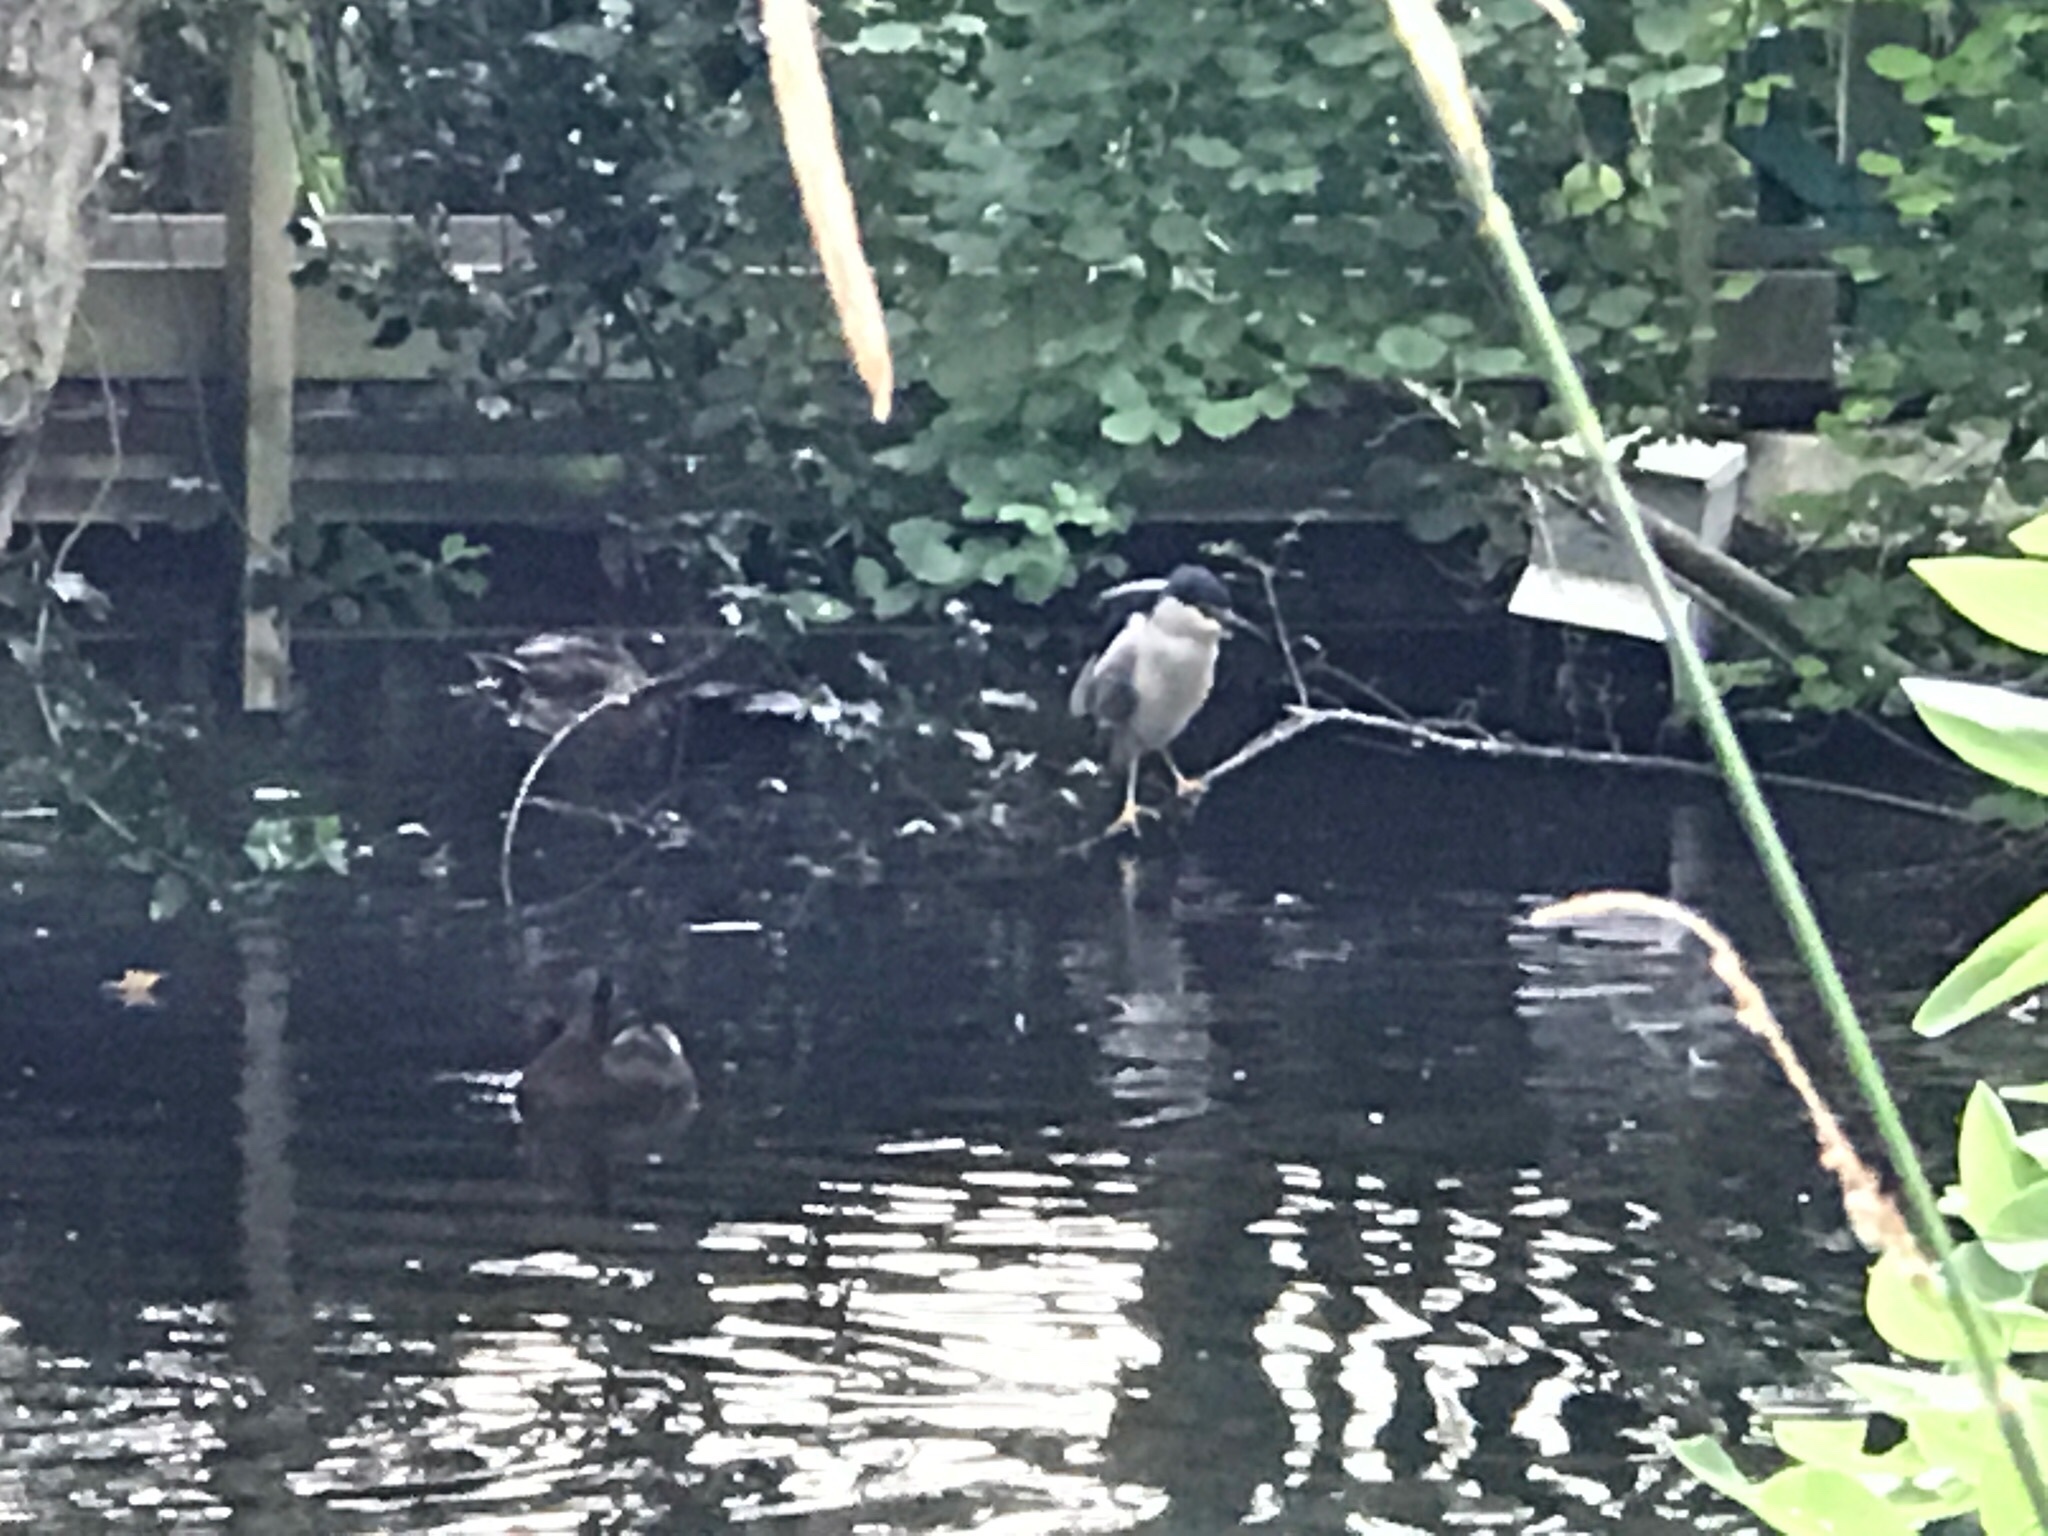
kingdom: Animalia
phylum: Chordata
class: Aves
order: Pelecaniformes
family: Ardeidae
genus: Nycticorax
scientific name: Nycticorax nycticorax
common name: Black-crowned night heron
